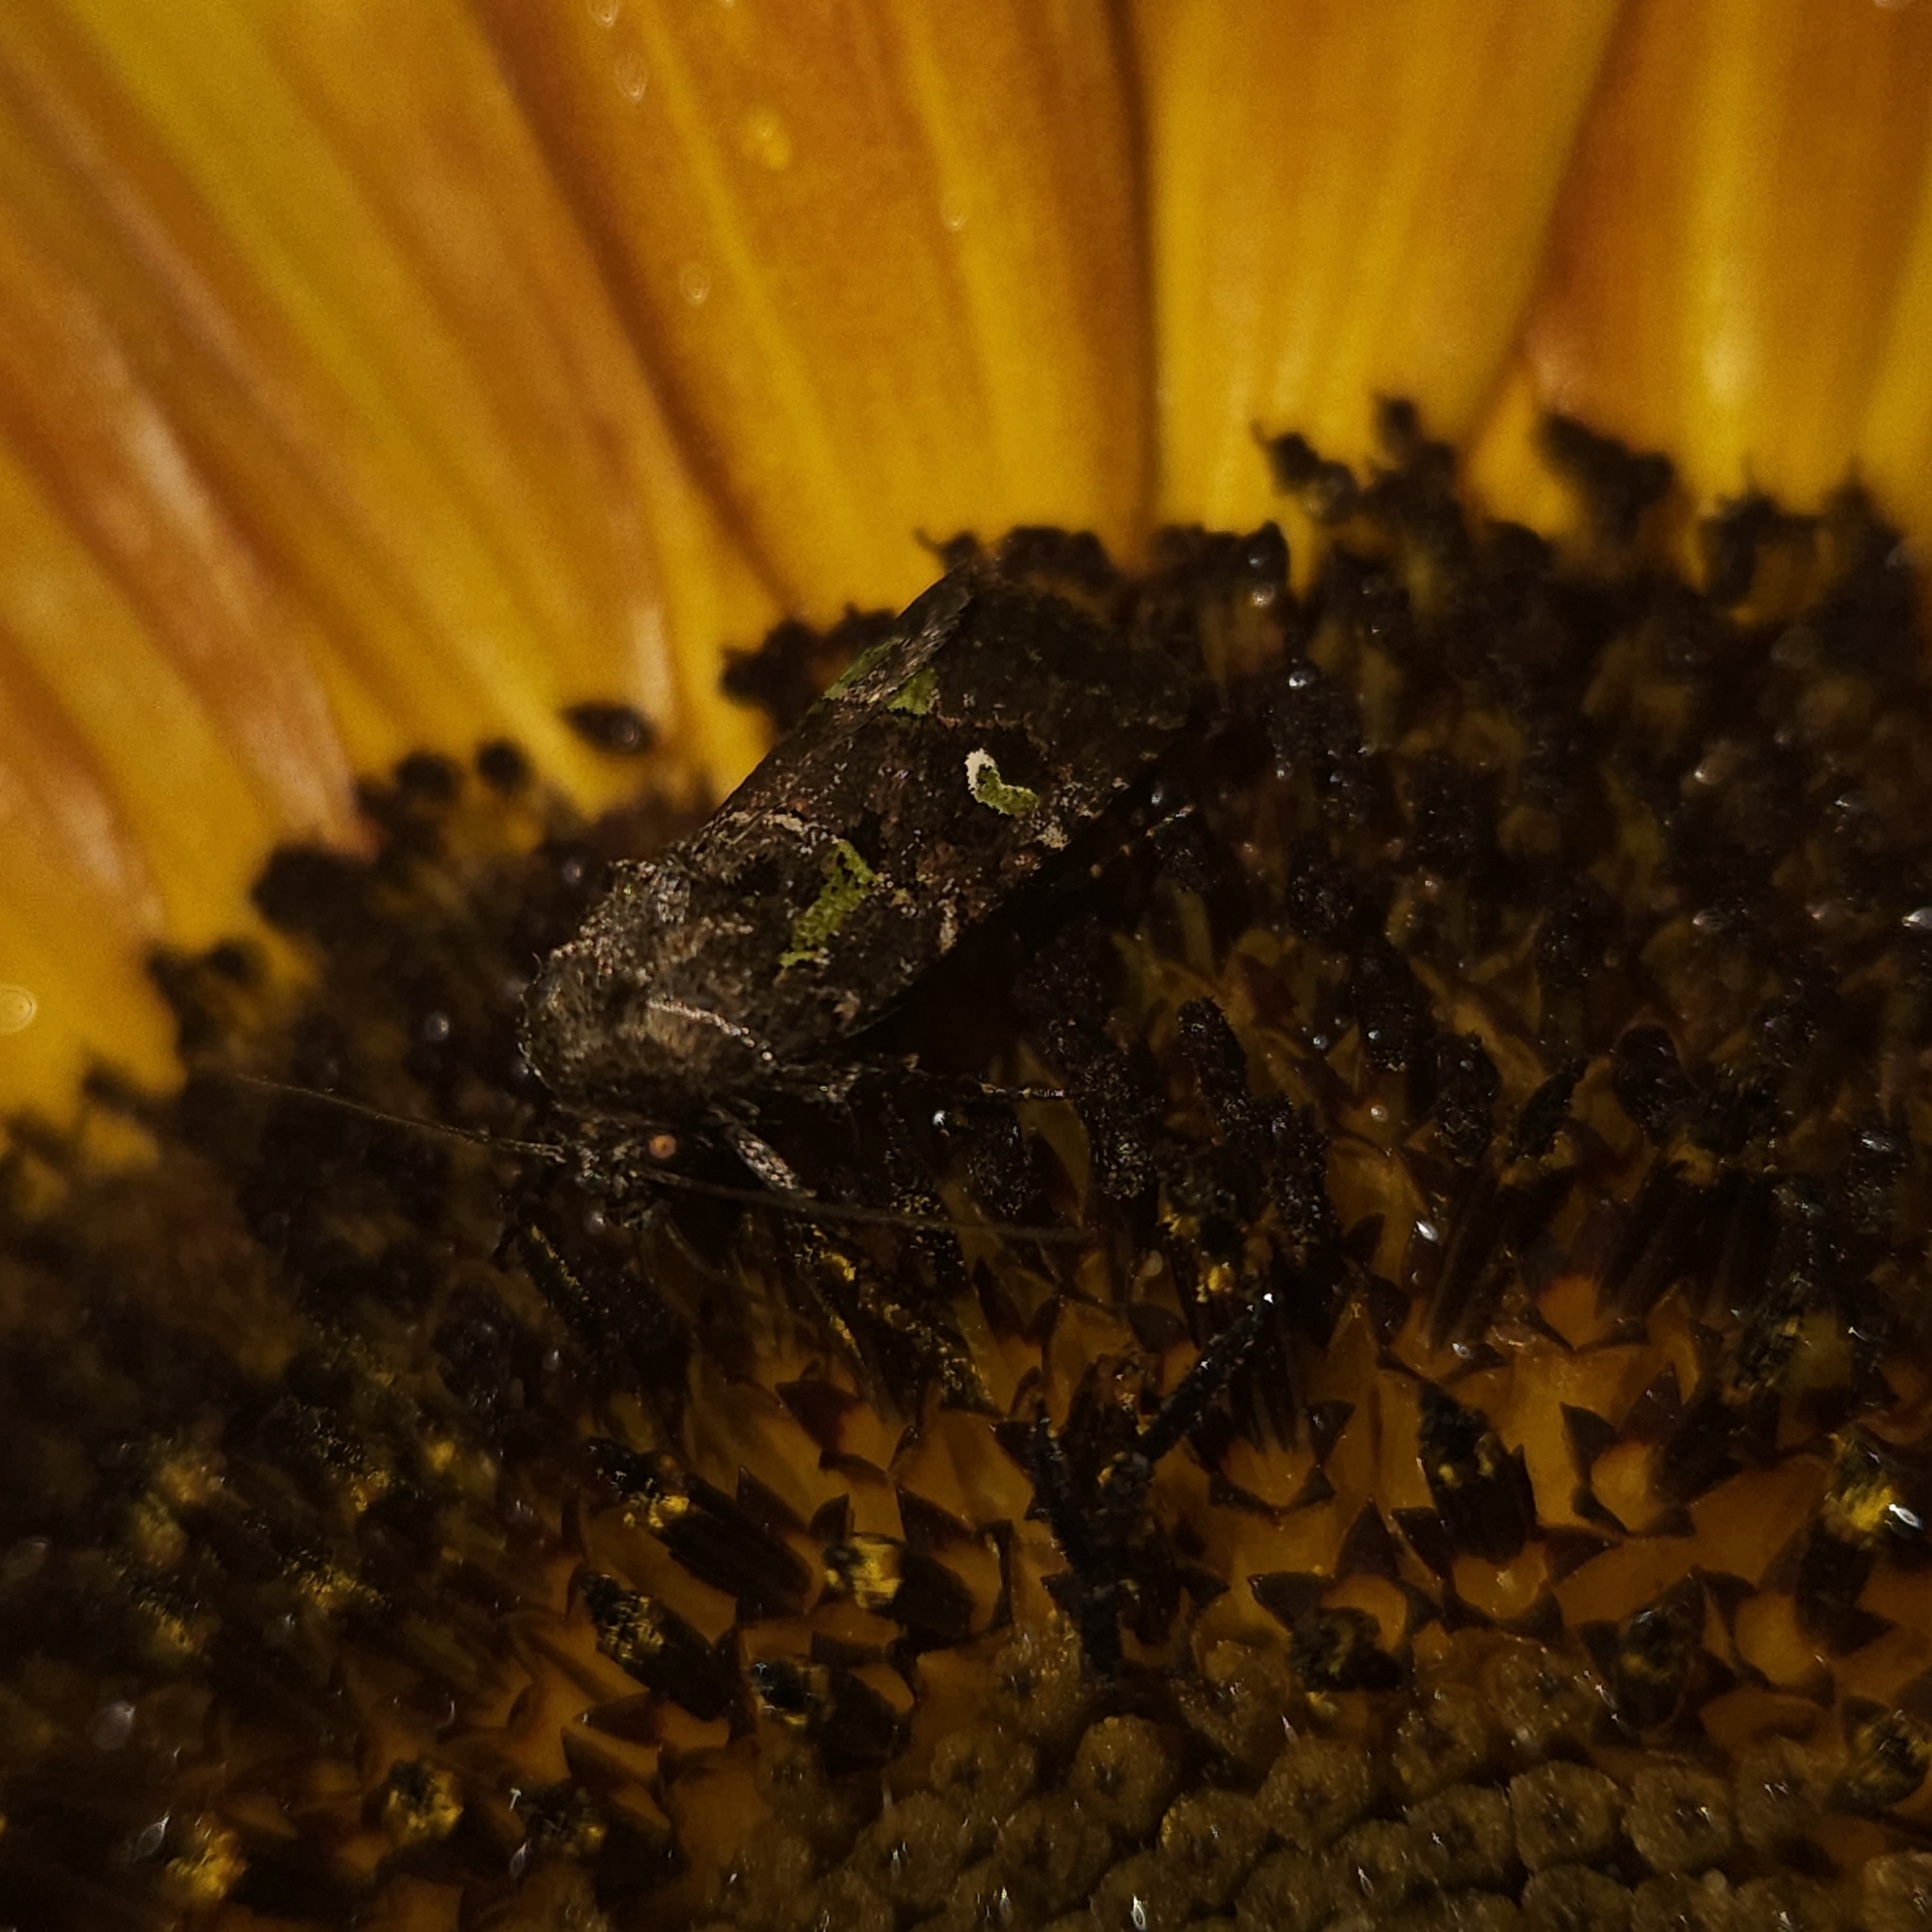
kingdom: Animalia
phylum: Arthropoda
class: Insecta
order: Lepidoptera
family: Noctuidae
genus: Lacinipolia
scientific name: Lacinipolia renigera
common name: Kidney-spotted minor
